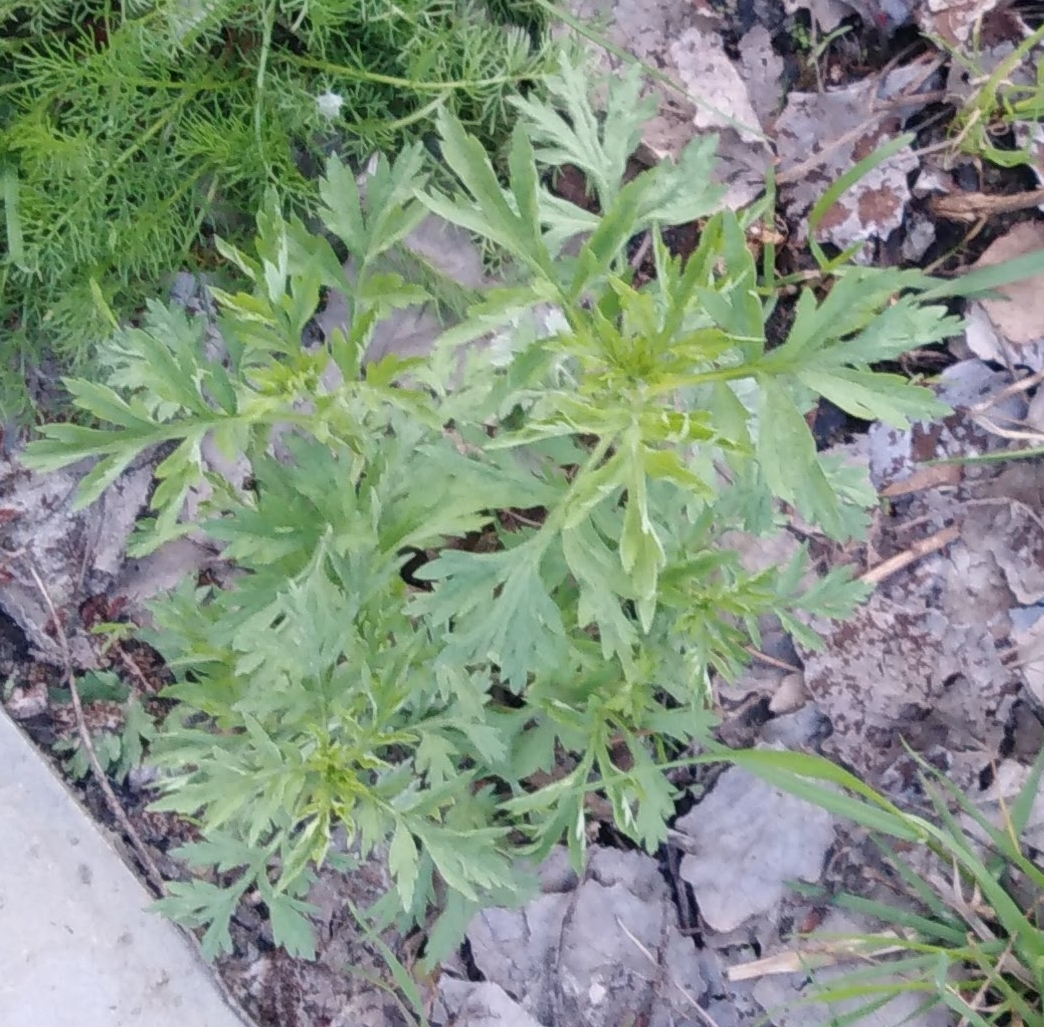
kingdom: Plantae
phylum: Tracheophyta
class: Magnoliopsida
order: Asterales
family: Asteraceae
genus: Artemisia
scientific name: Artemisia vulgaris
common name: Mugwort
